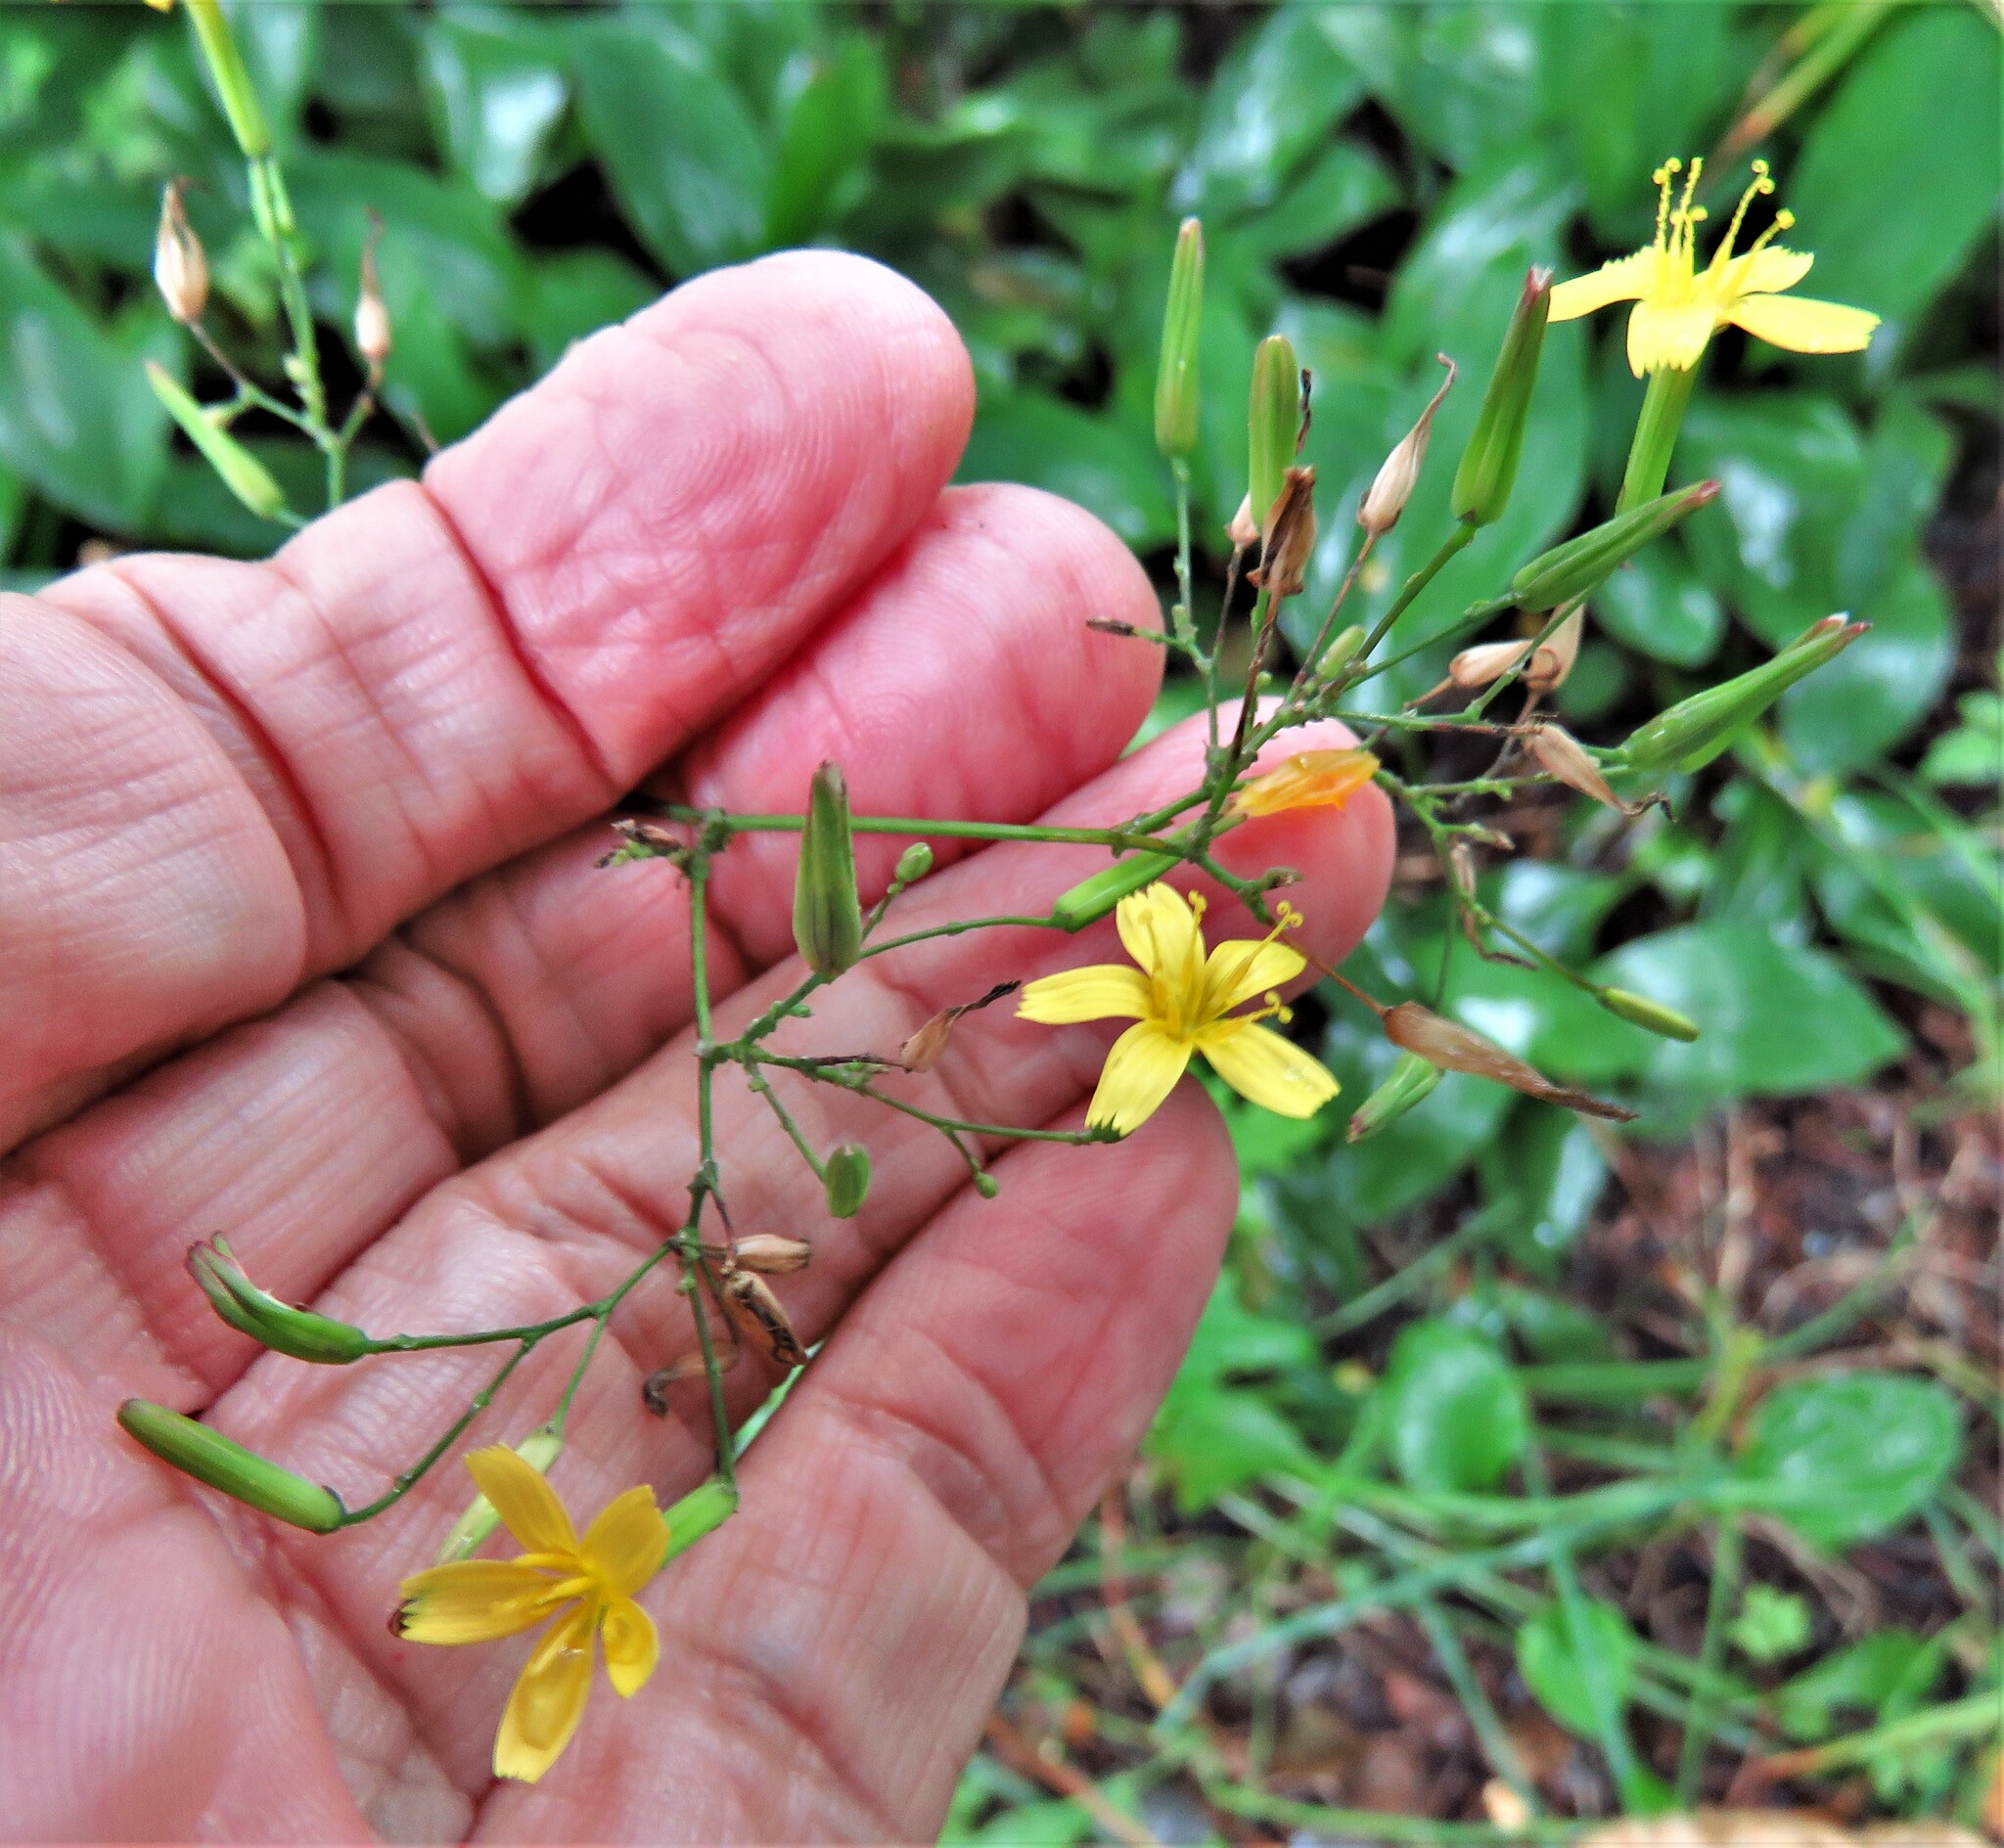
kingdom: Plantae
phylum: Tracheophyta
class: Magnoliopsida
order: Asterales
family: Asteraceae
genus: Mycelis
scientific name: Mycelis muralis
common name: Wall lettuce
